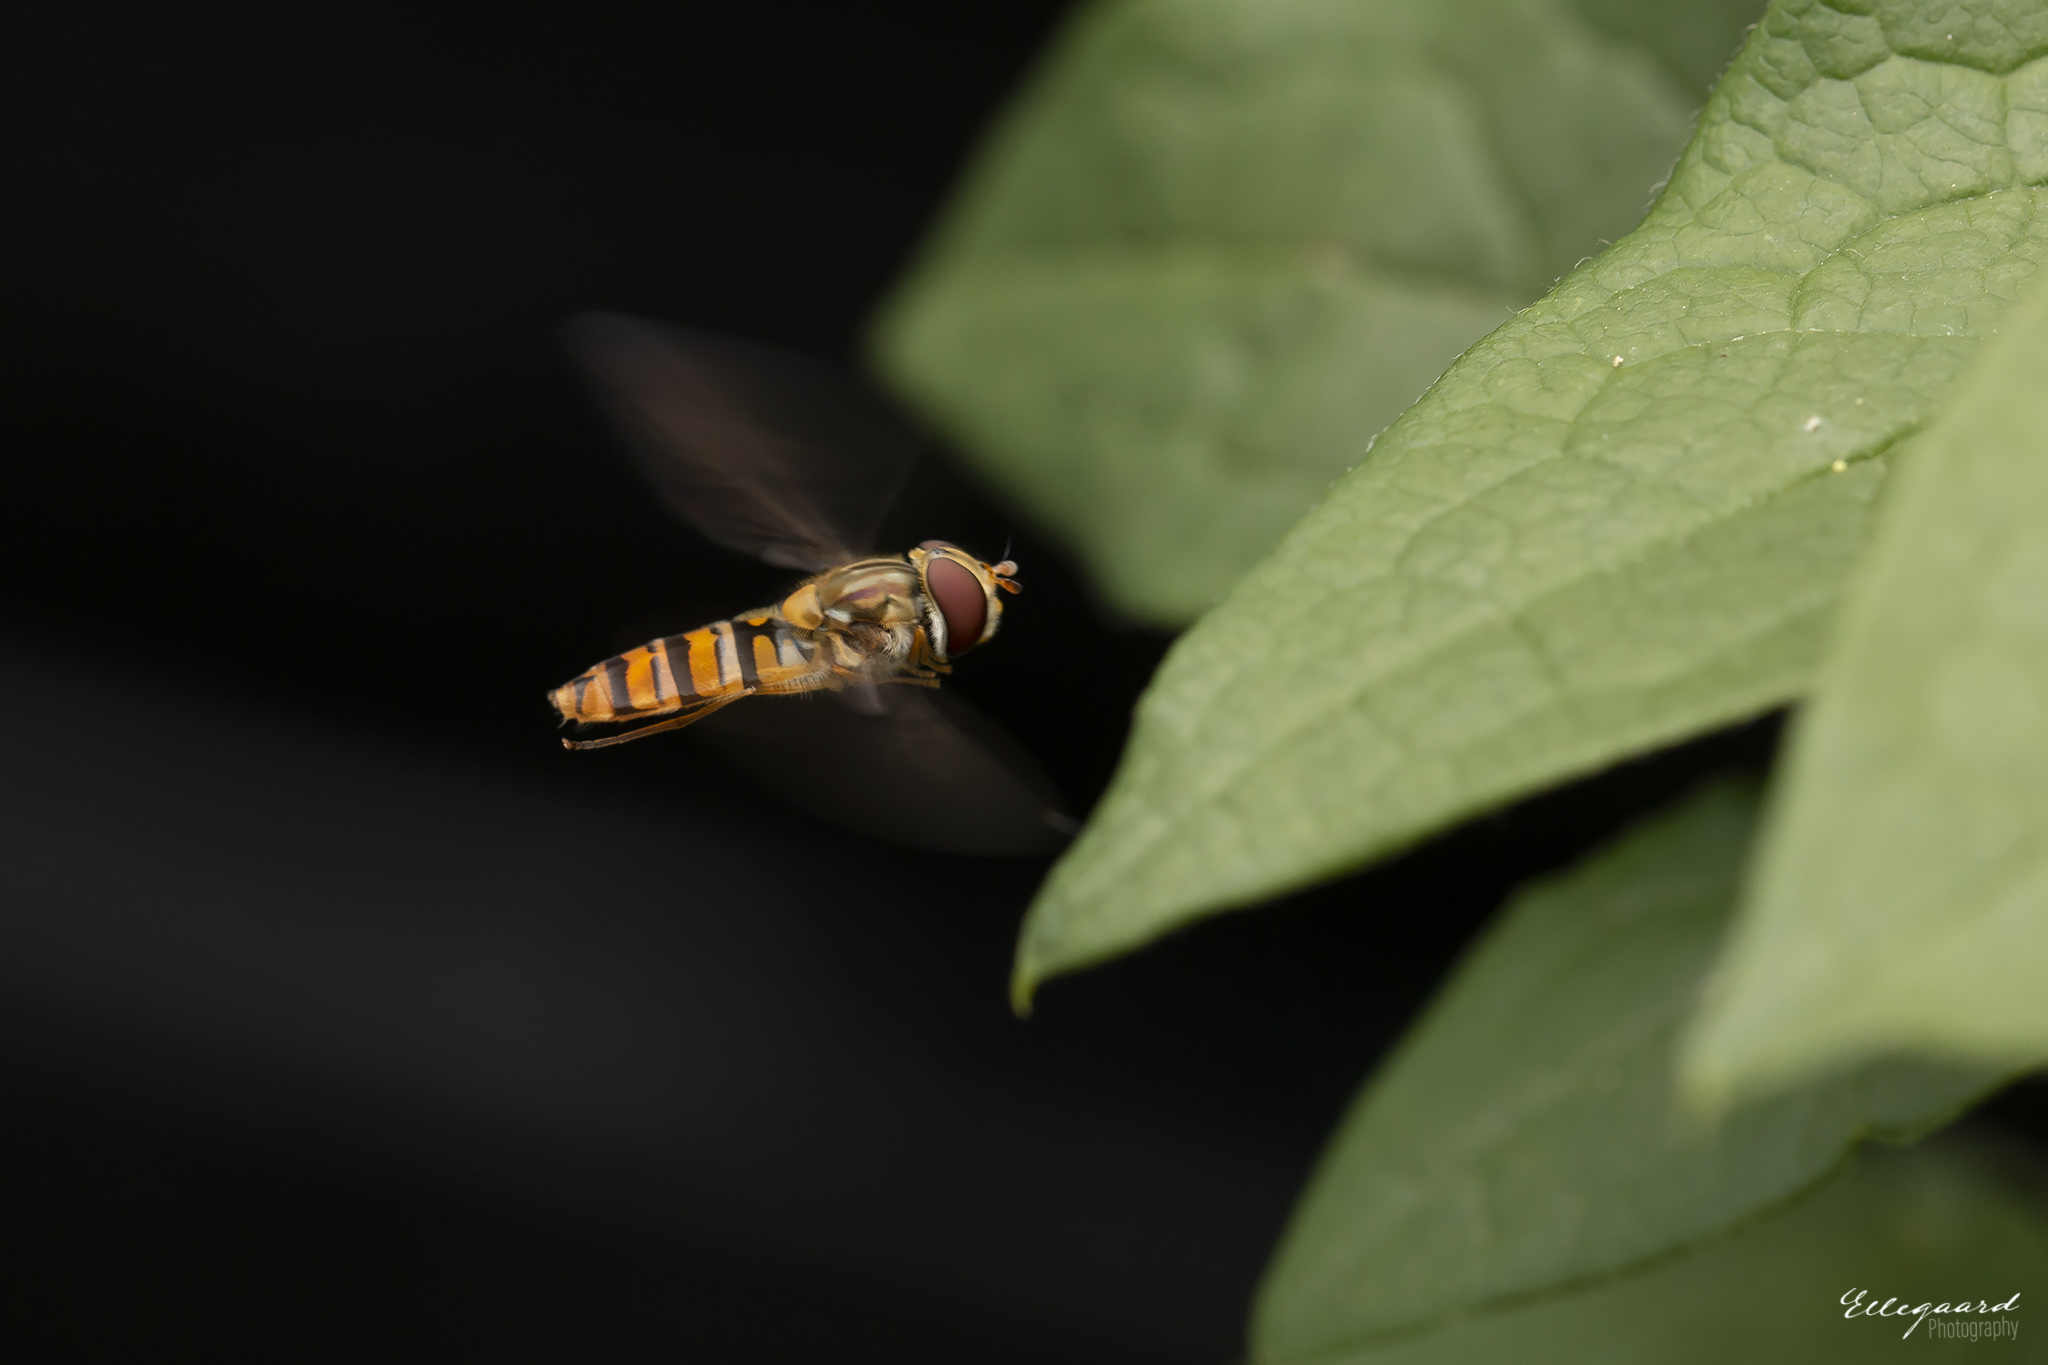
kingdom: Animalia
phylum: Arthropoda
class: Insecta
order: Diptera
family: Syrphidae
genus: Episyrphus
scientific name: Episyrphus balteatus
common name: Marmalade hoverfly
